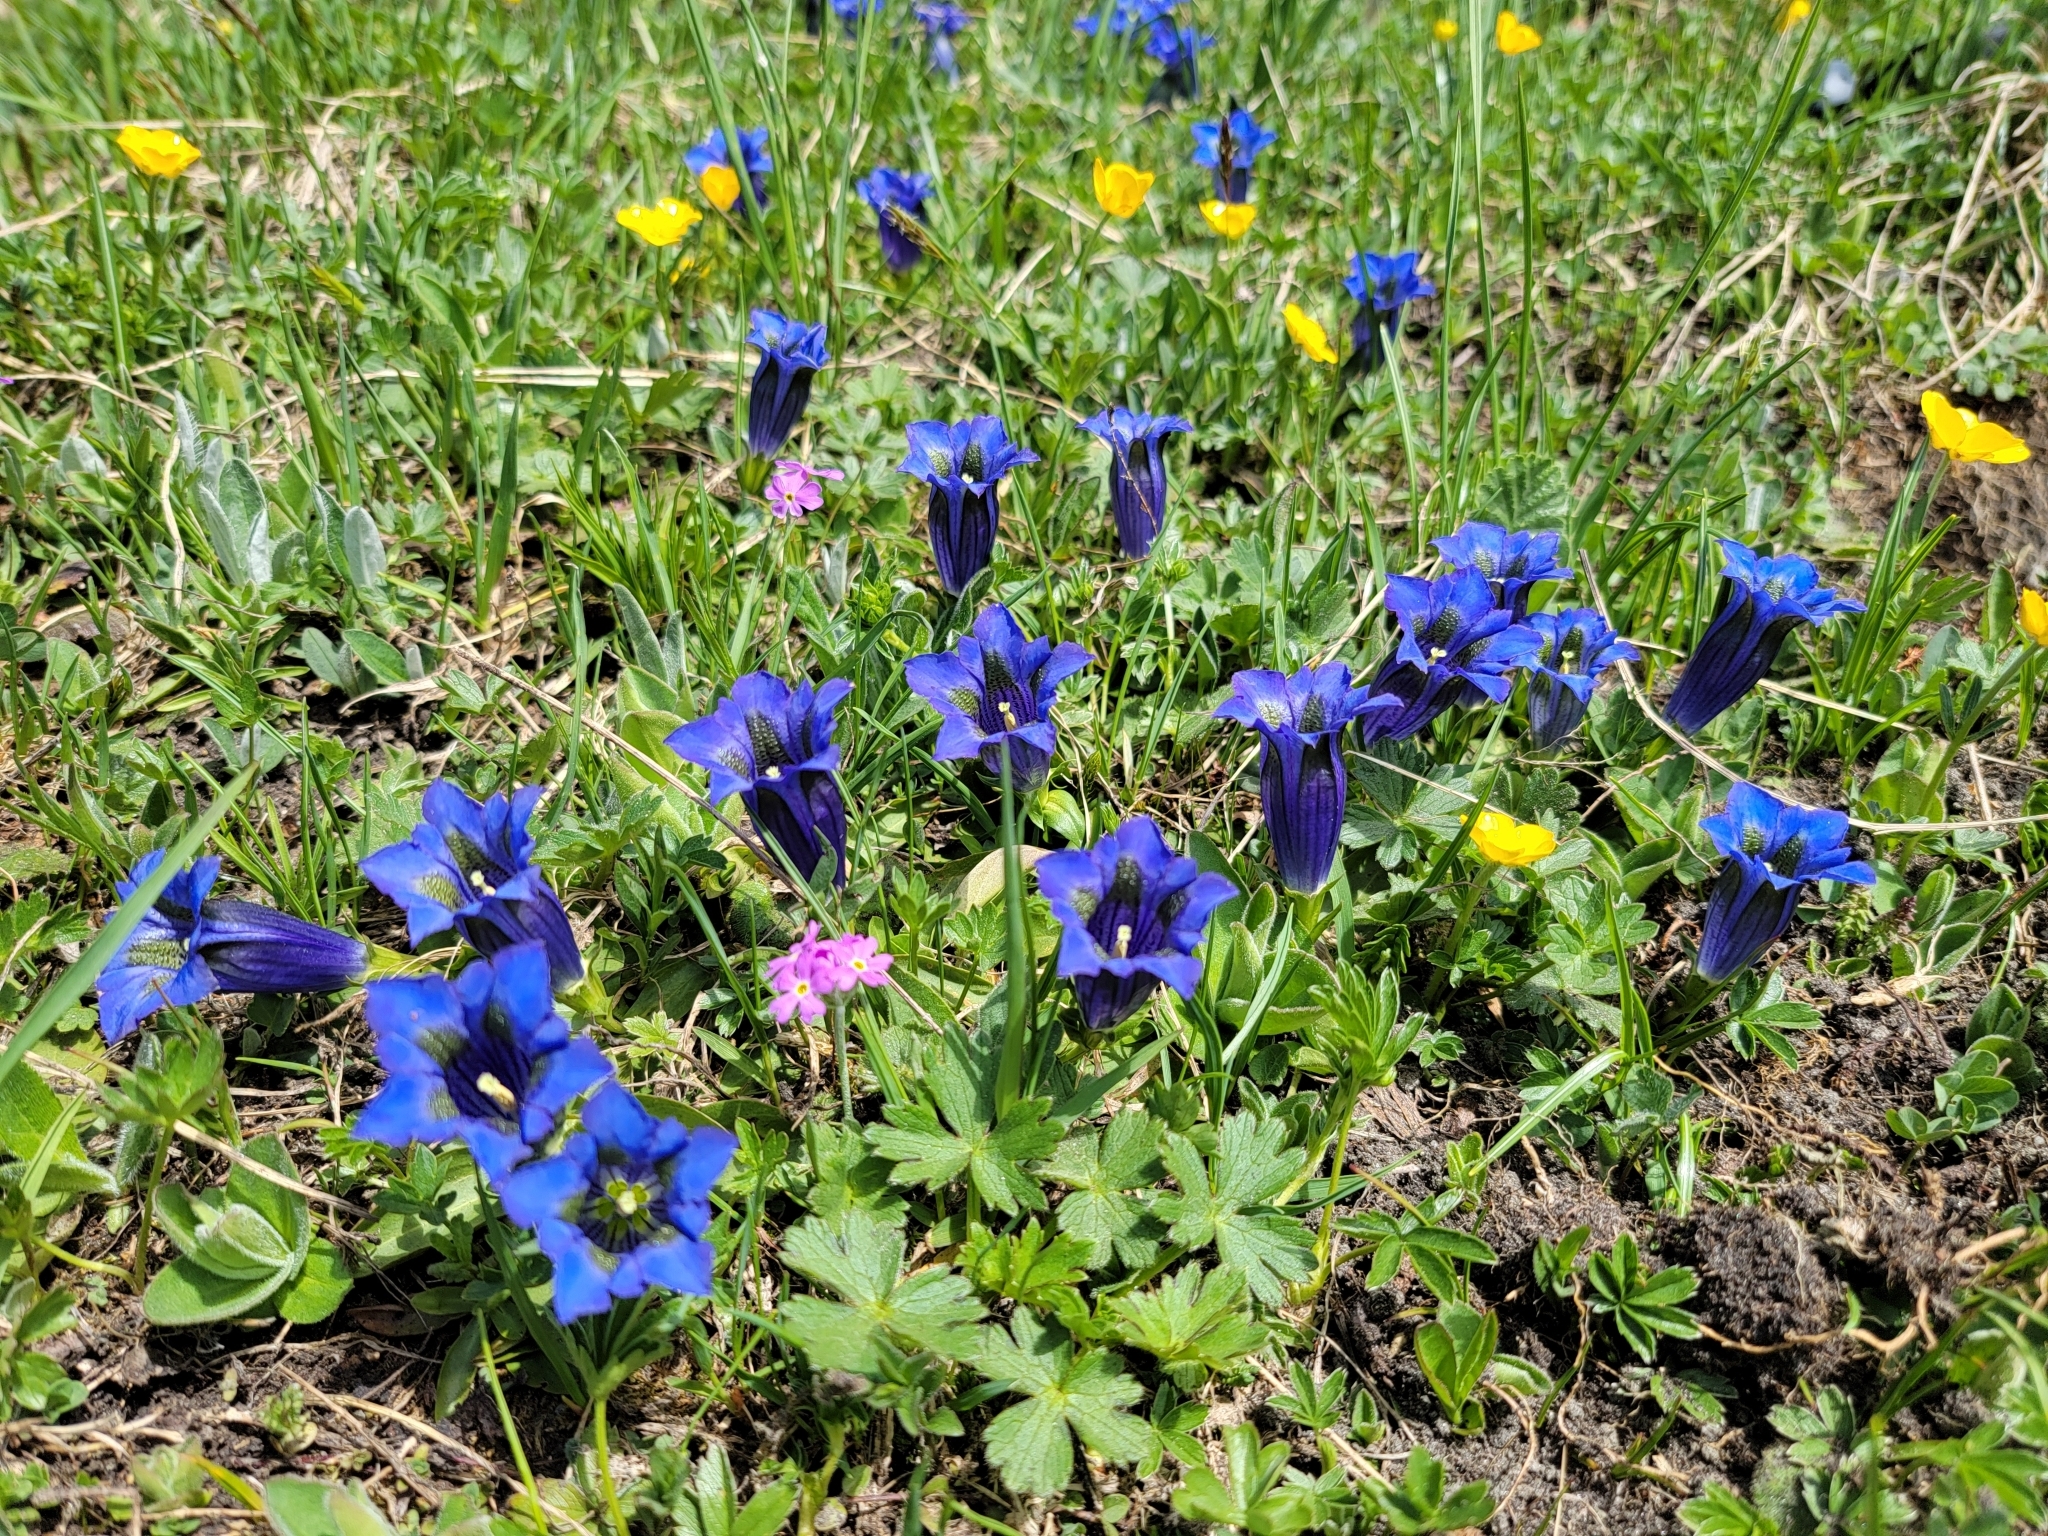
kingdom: Plantae
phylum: Tracheophyta
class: Magnoliopsida
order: Gentianales
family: Gentianaceae
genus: Gentiana
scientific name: Gentiana acaulis
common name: Trumpet gentian
